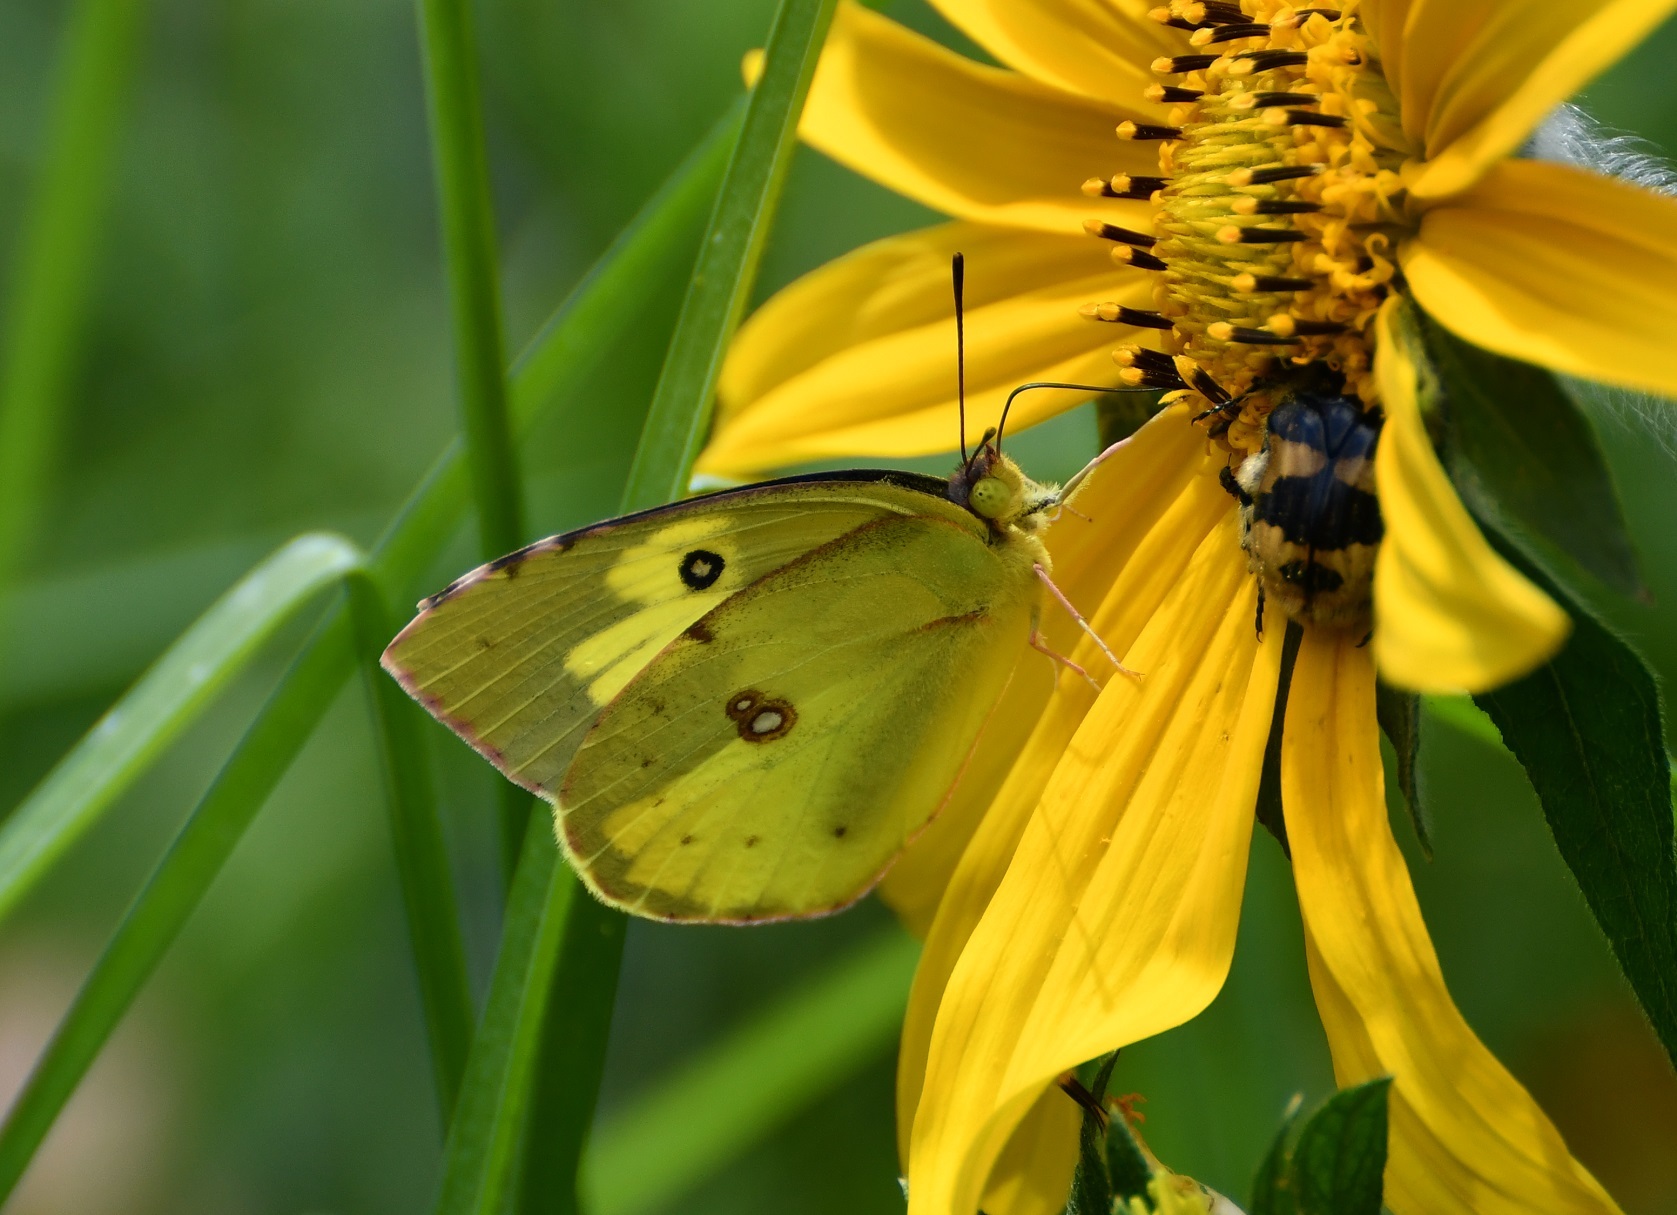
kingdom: Animalia
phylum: Arthropoda
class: Insecta
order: Lepidoptera
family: Pieridae
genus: Zerene
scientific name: Zerene cesonia
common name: Southern dogface
